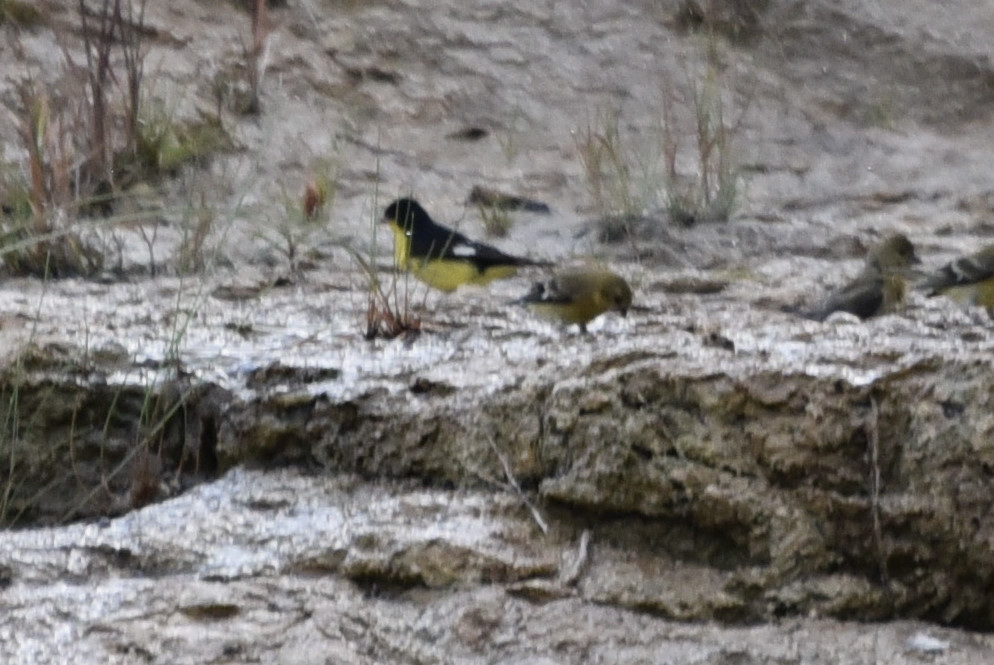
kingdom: Animalia
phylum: Chordata
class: Aves
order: Passeriformes
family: Fringillidae
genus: Spinus
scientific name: Spinus psaltria
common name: Lesser goldfinch
